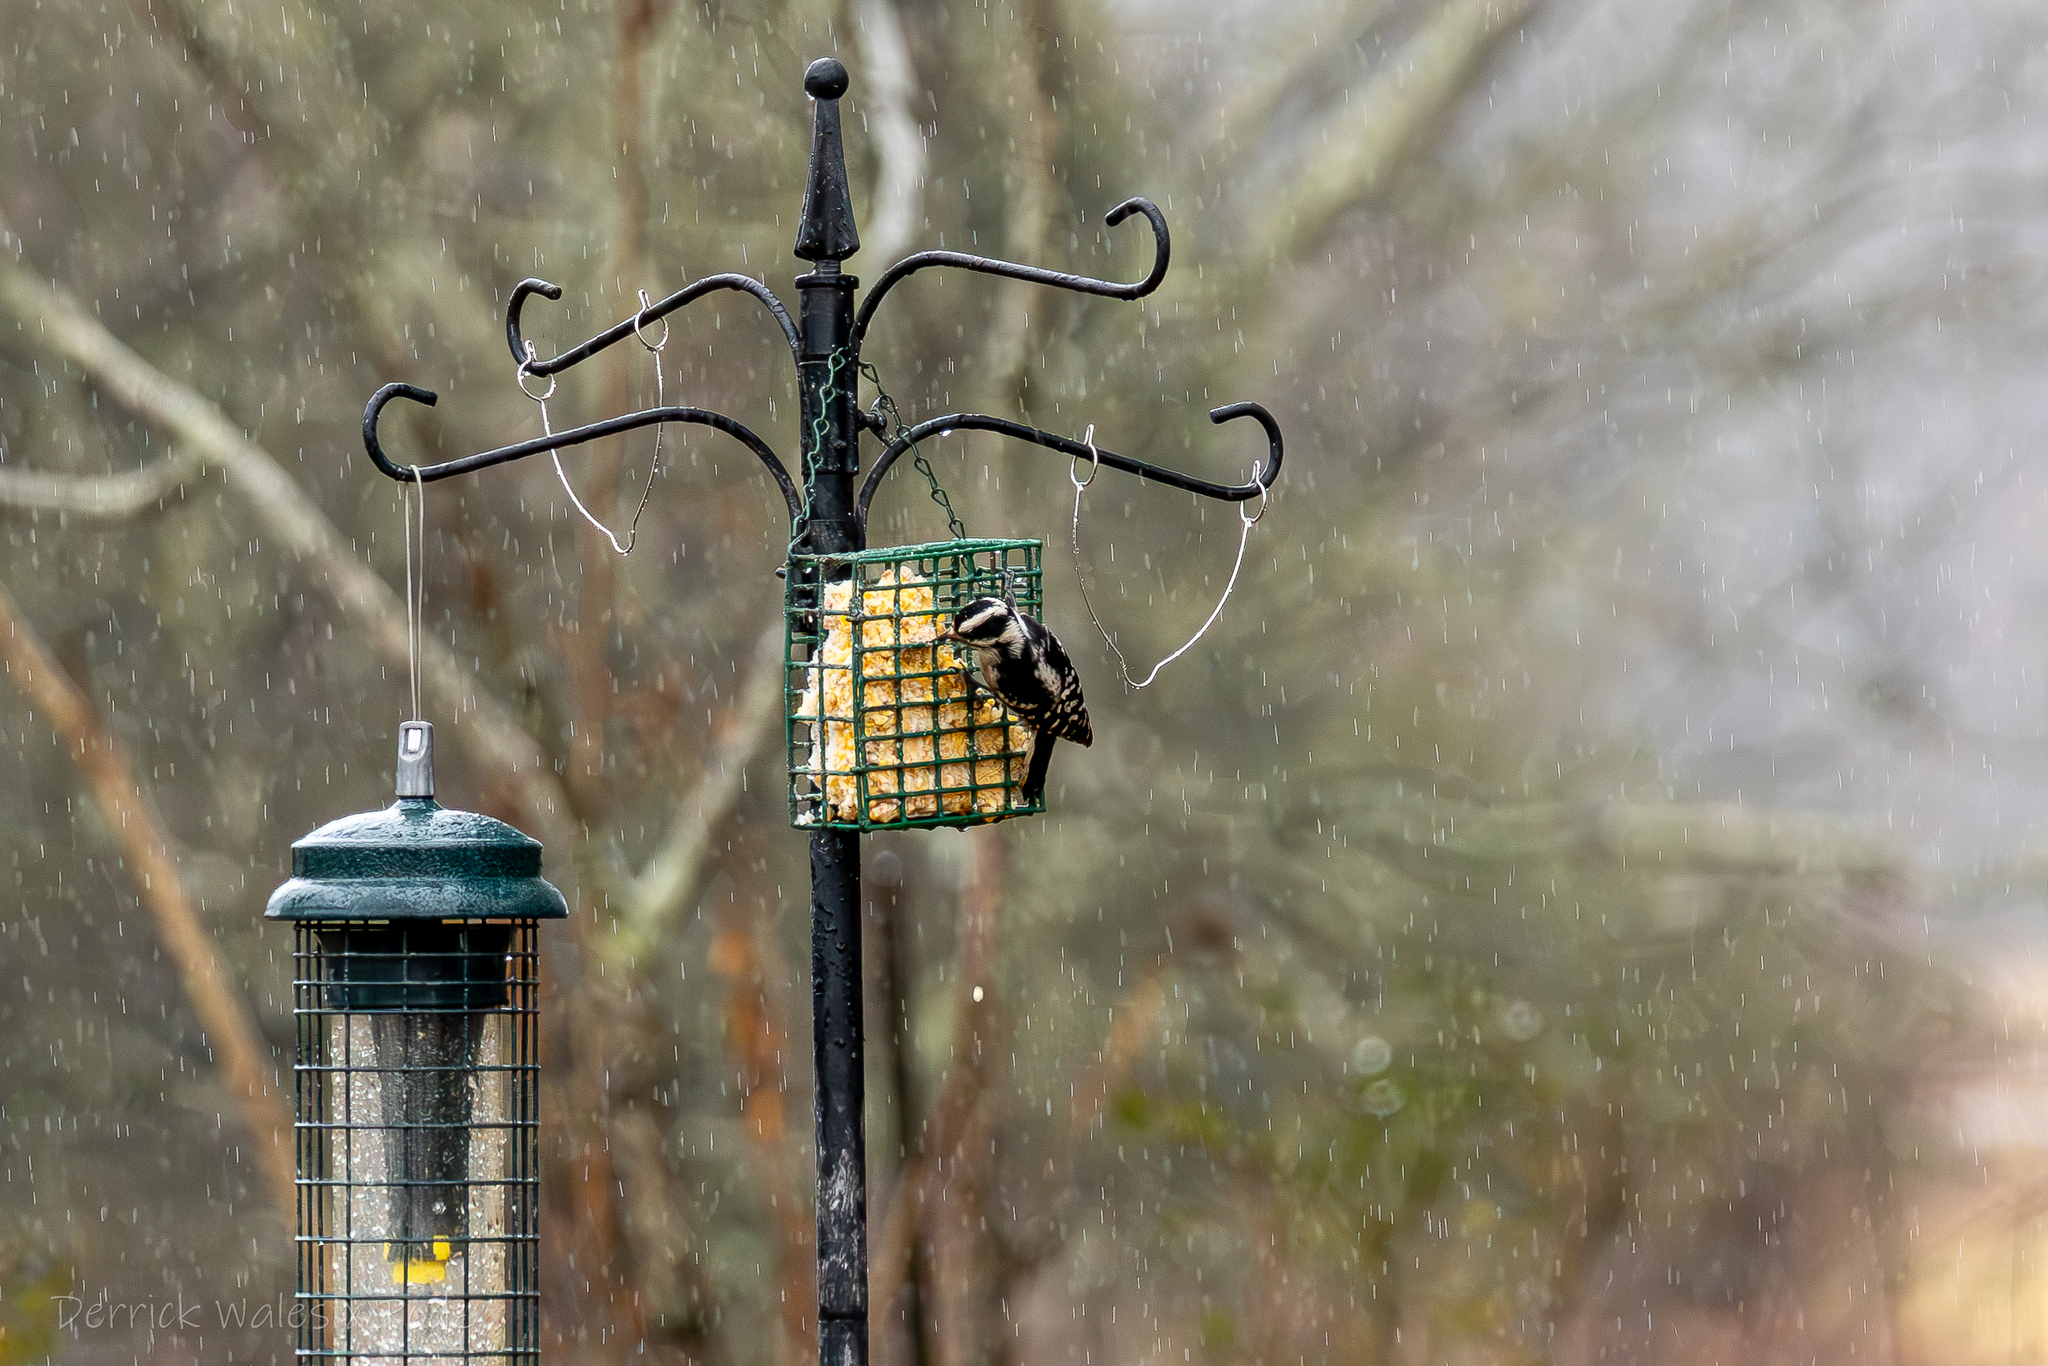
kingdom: Animalia
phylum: Chordata
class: Aves
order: Piciformes
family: Picidae
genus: Dryobates
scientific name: Dryobates pubescens
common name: Downy woodpecker
